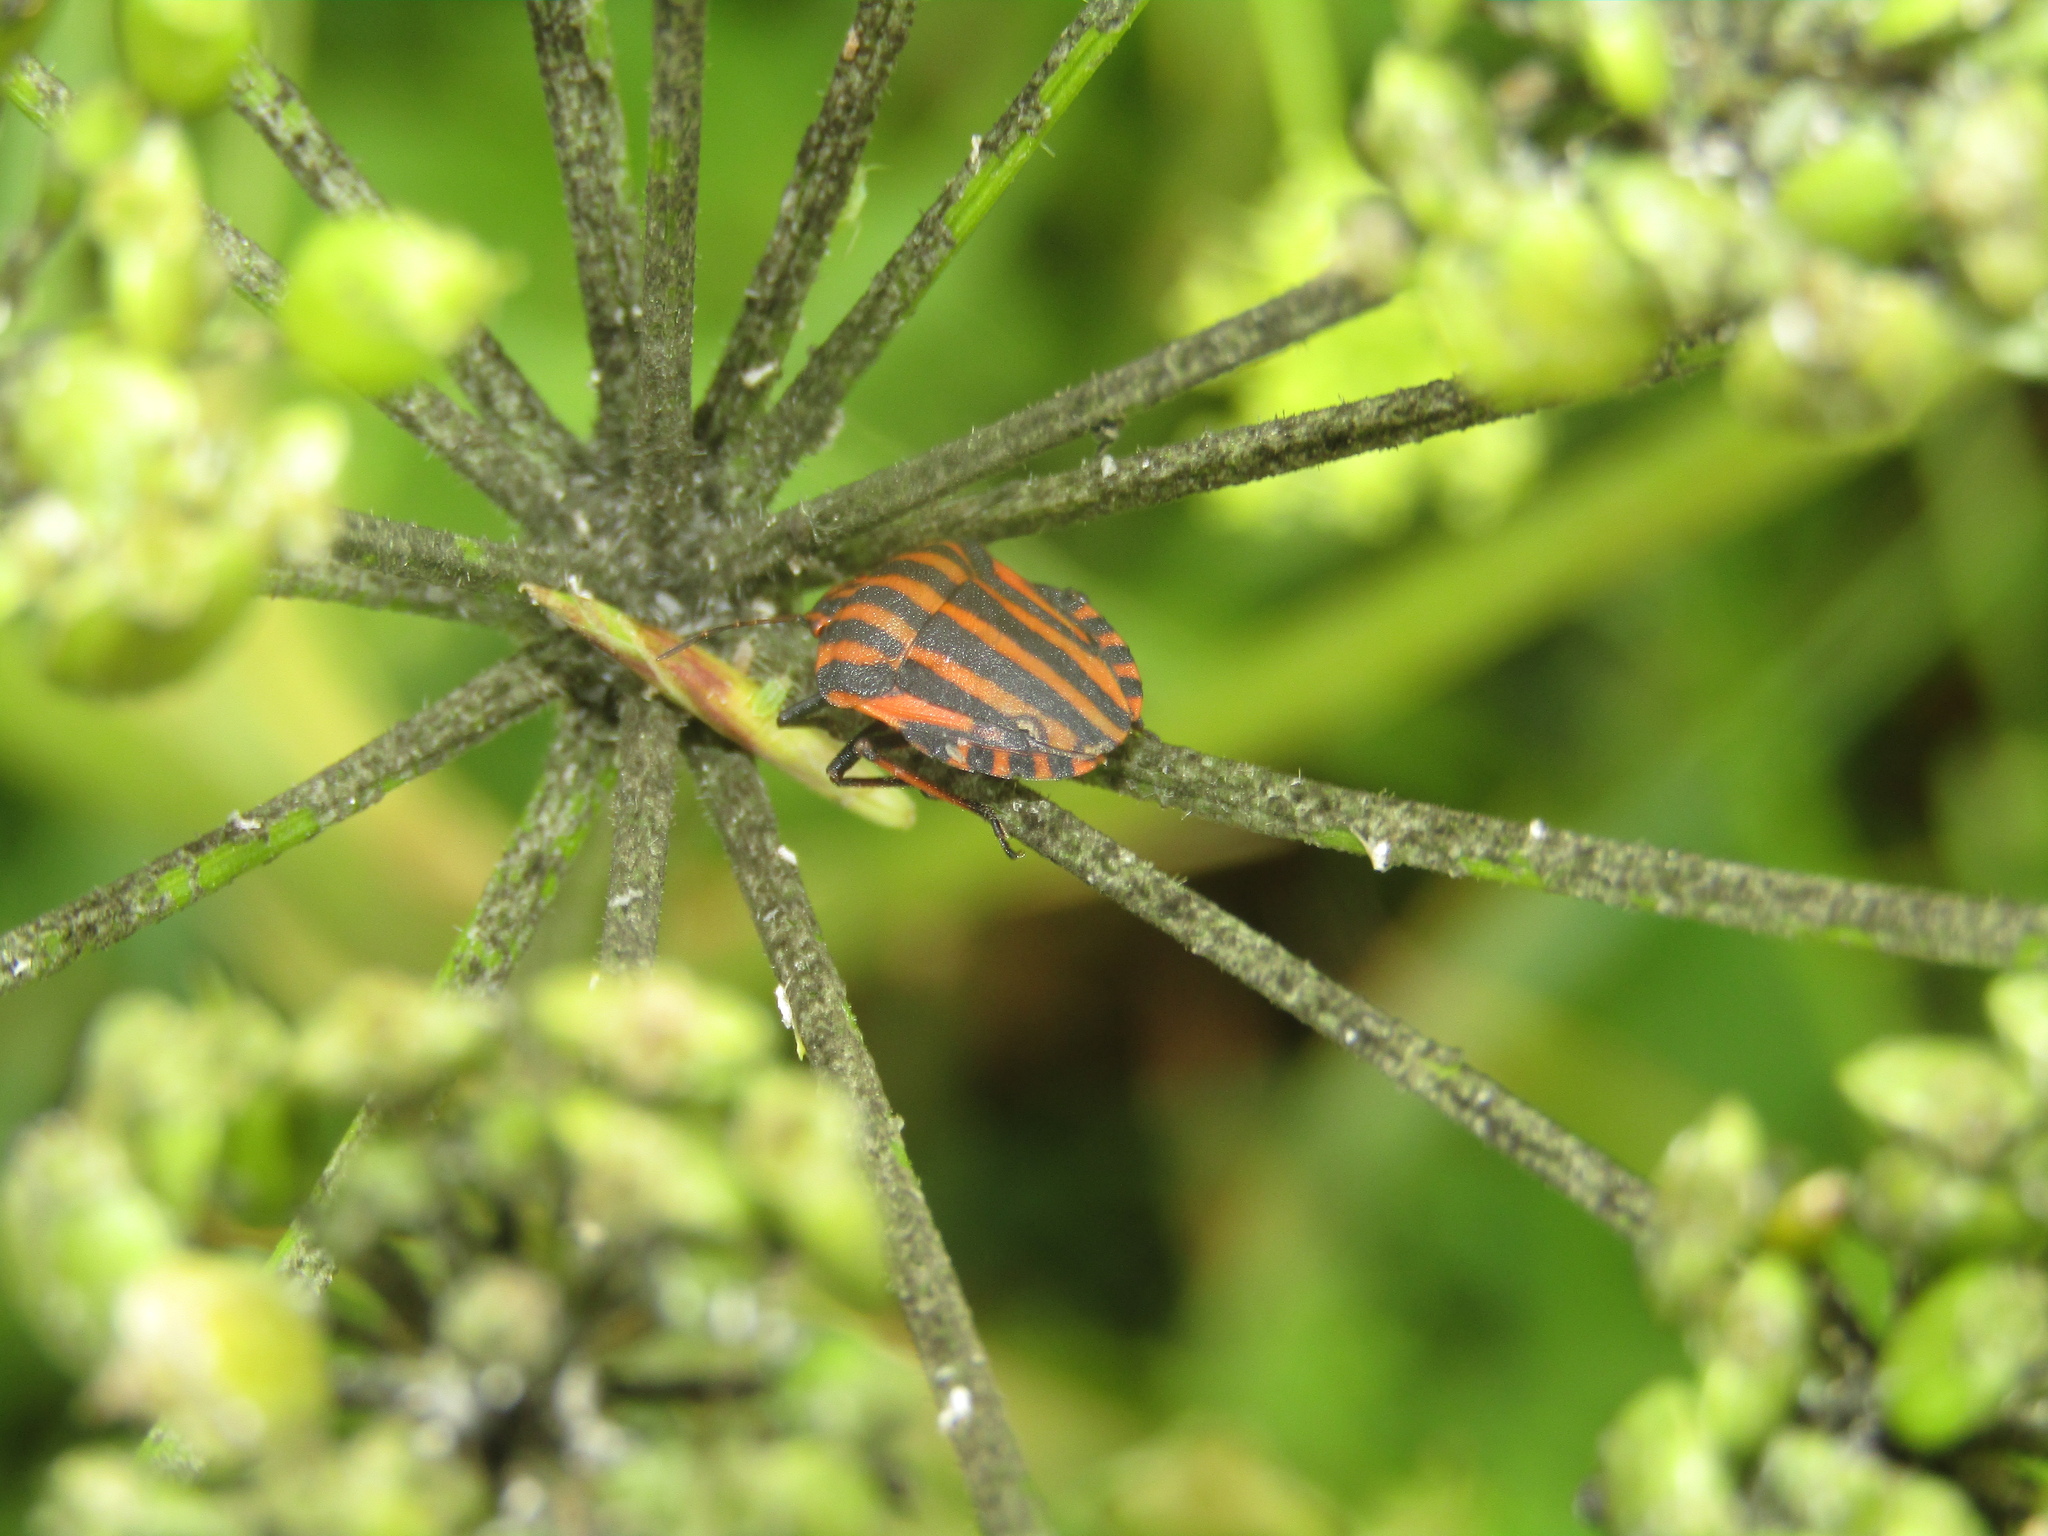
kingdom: Animalia
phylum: Arthropoda
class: Insecta
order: Hemiptera
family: Pentatomidae
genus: Graphosoma
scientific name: Graphosoma italicum
